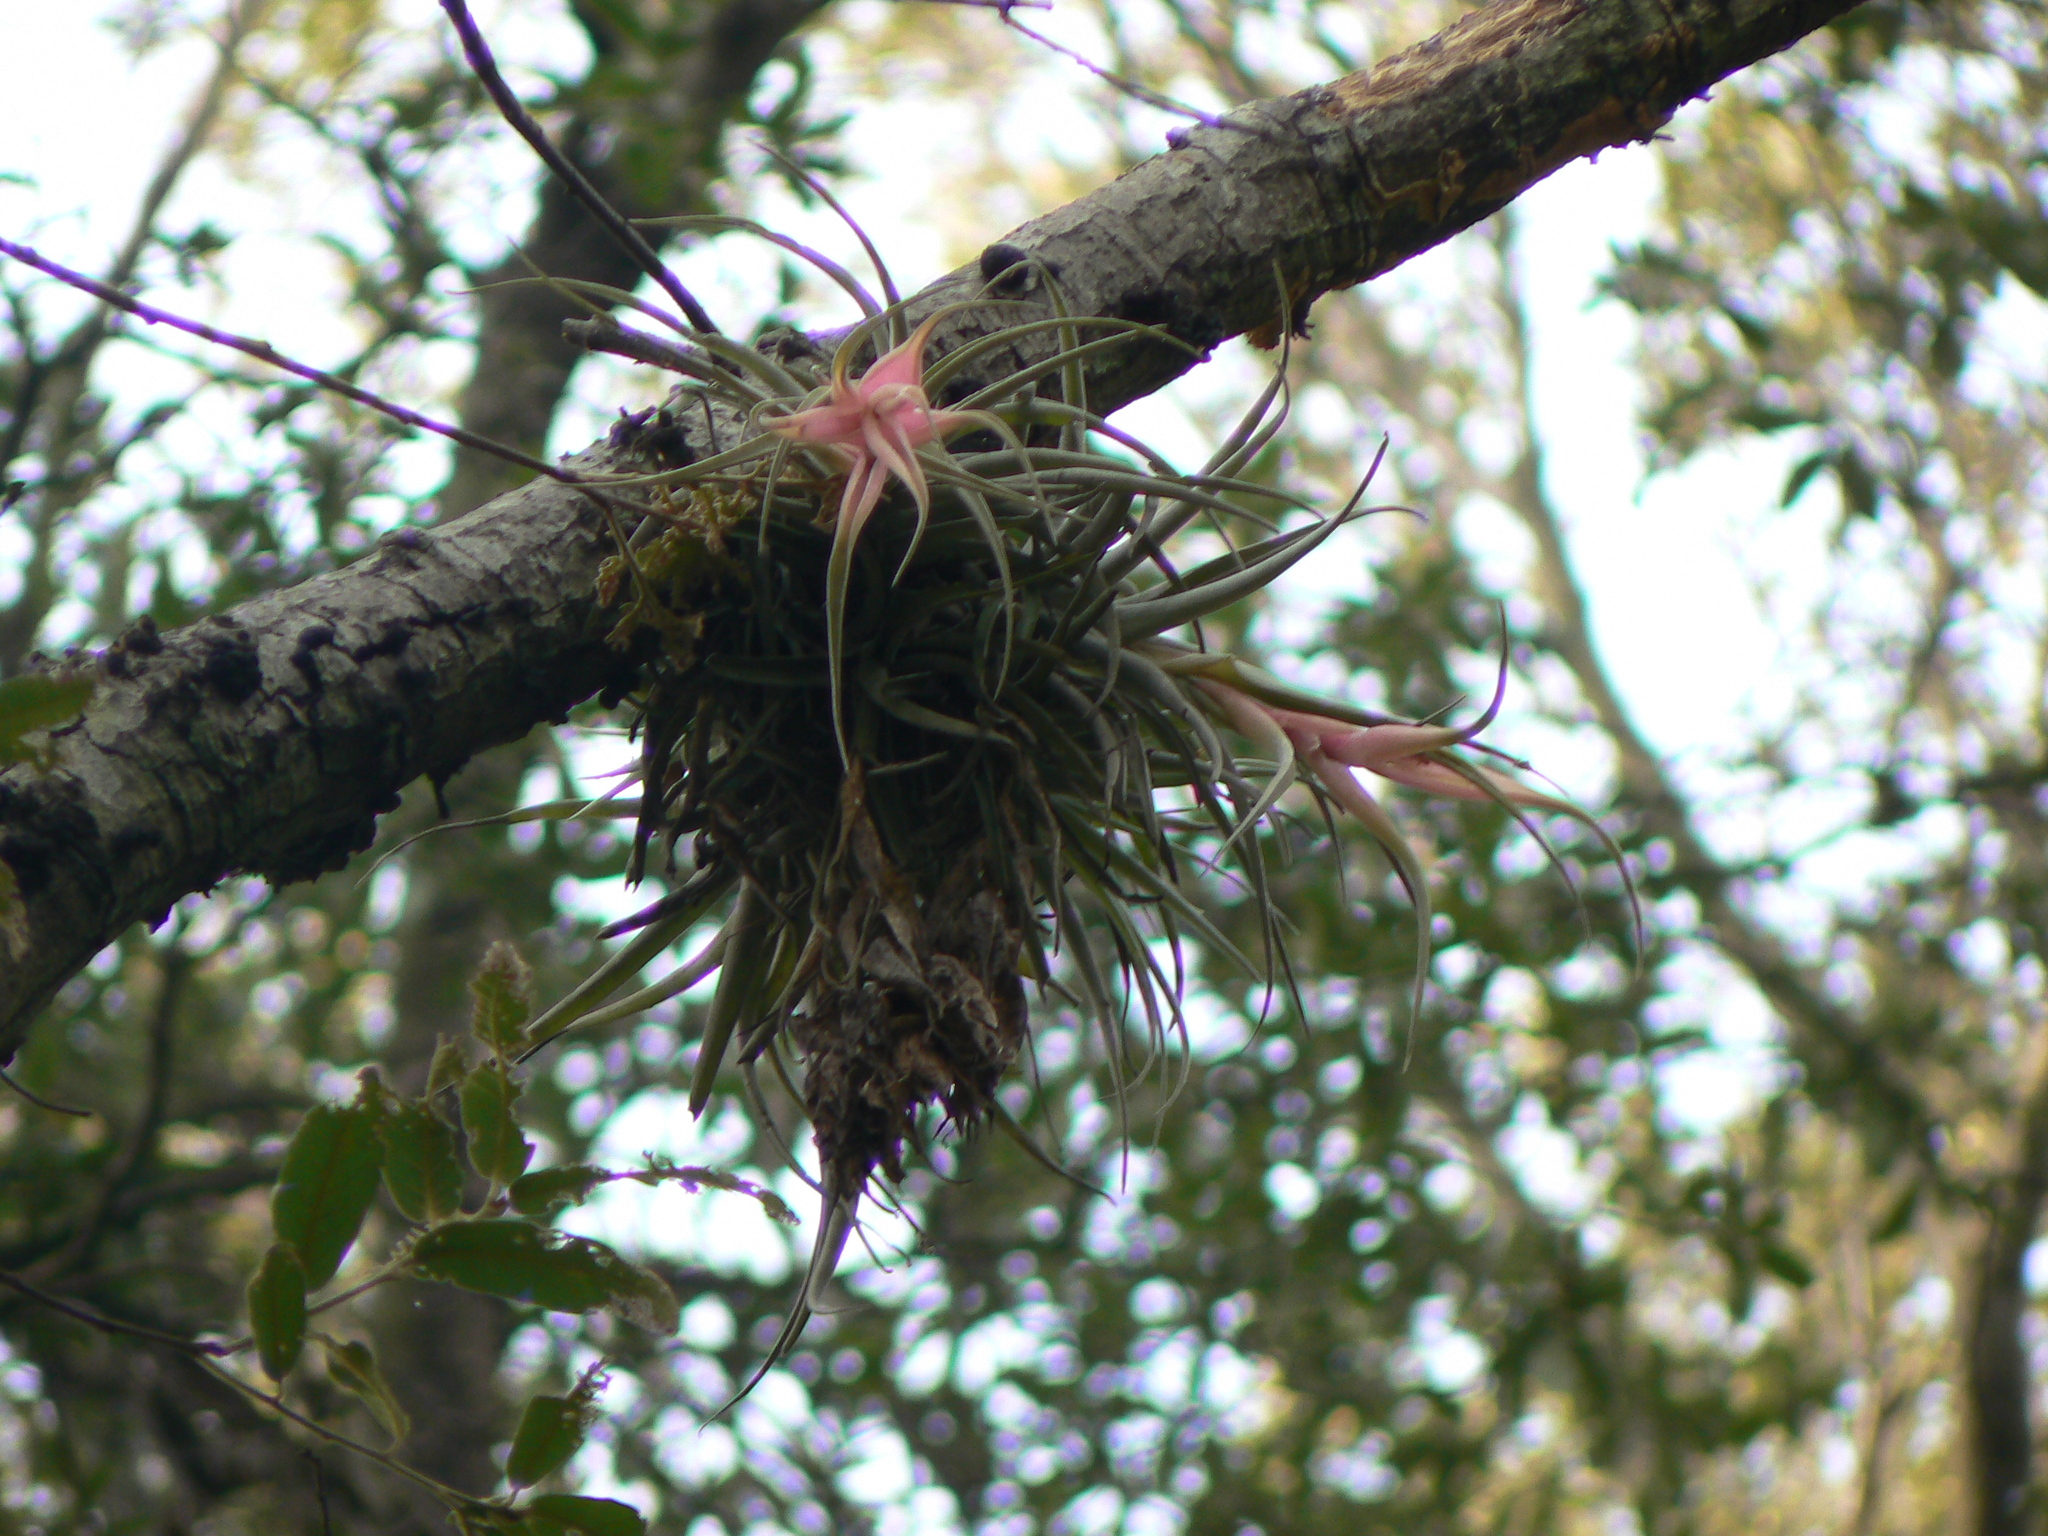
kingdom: Plantae
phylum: Tracheophyta
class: Liliopsida
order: Poales
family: Bromeliaceae
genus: Tillandsia
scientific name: Tillandsia erubescens
